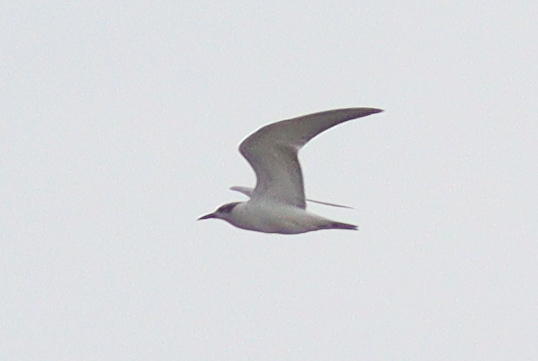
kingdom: Animalia
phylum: Chordata
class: Aves
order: Charadriiformes
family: Laridae
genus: Chlidonias
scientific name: Chlidonias hybrida
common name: Whiskered tern
